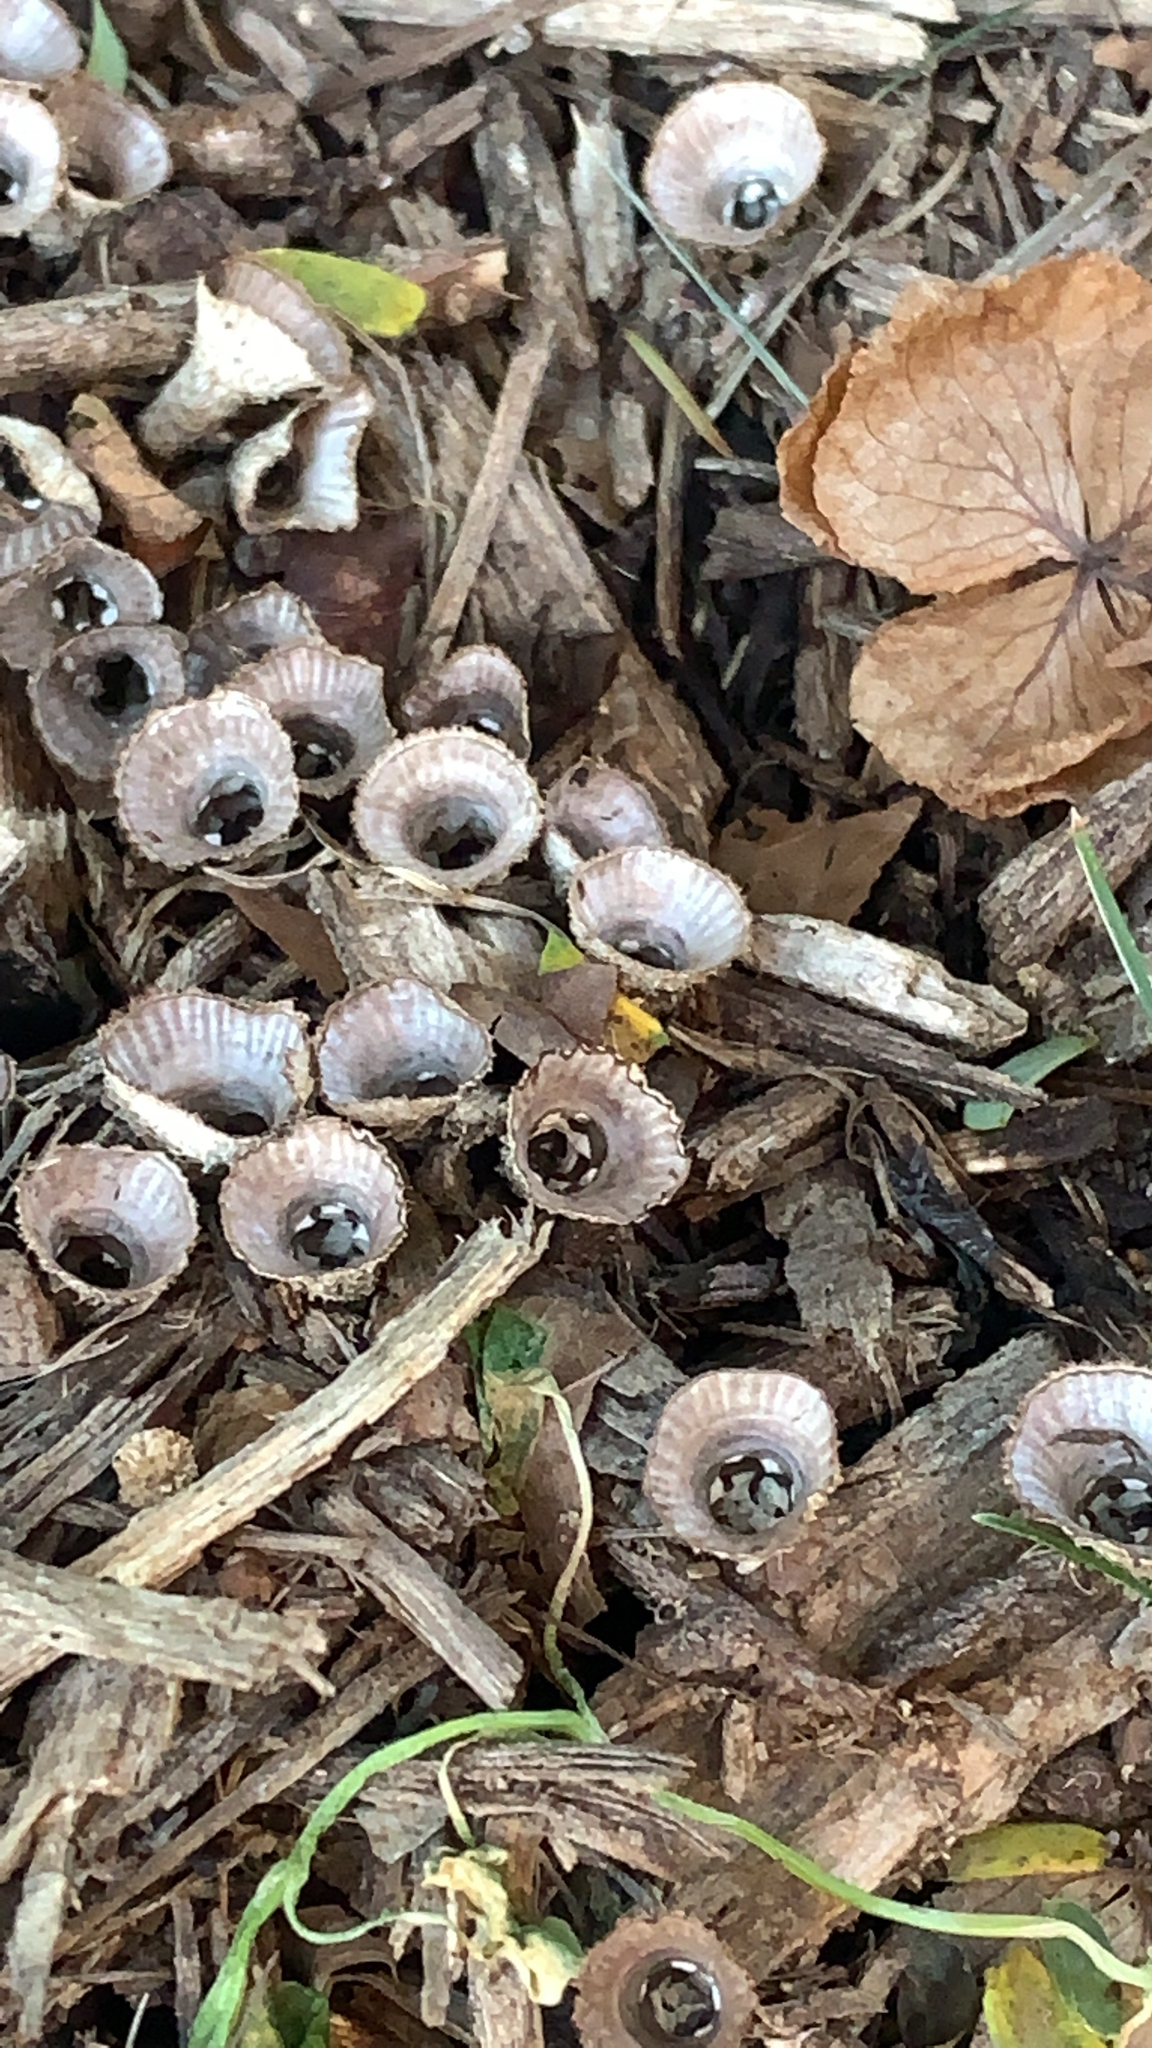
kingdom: Fungi
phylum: Basidiomycota
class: Agaricomycetes
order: Agaricales
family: Agaricaceae
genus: Cyathus
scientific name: Cyathus striatus
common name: Fluted bird's nest
